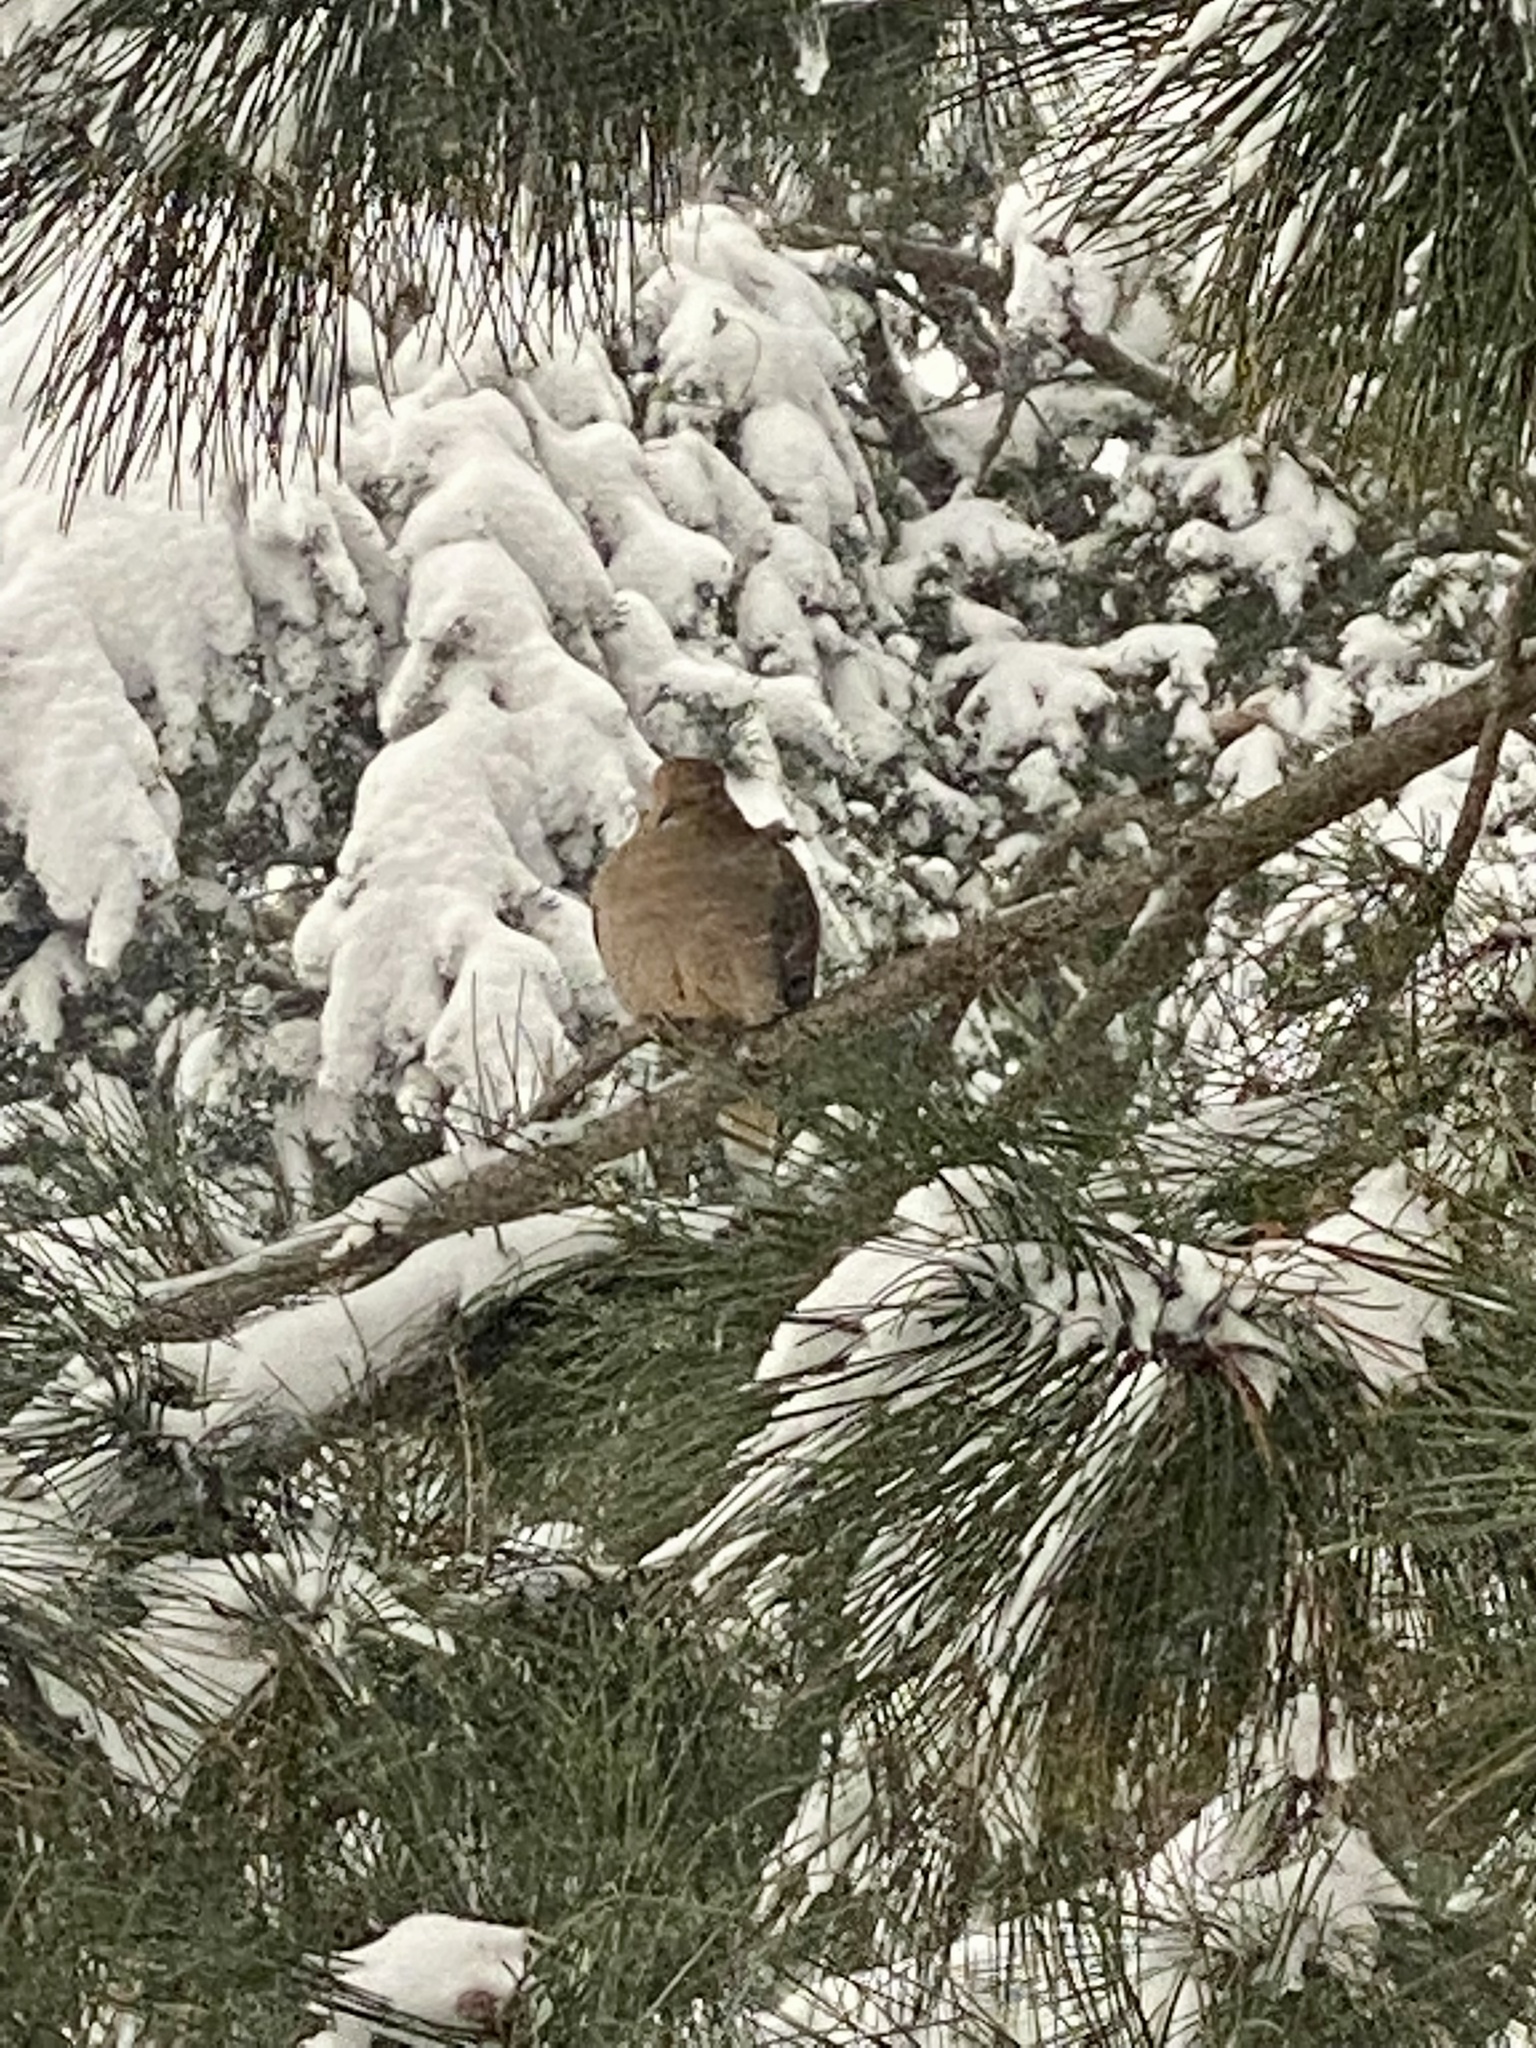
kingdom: Animalia
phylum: Chordata
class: Aves
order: Columbiformes
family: Columbidae
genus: Zenaida
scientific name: Zenaida macroura
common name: Mourning dove
